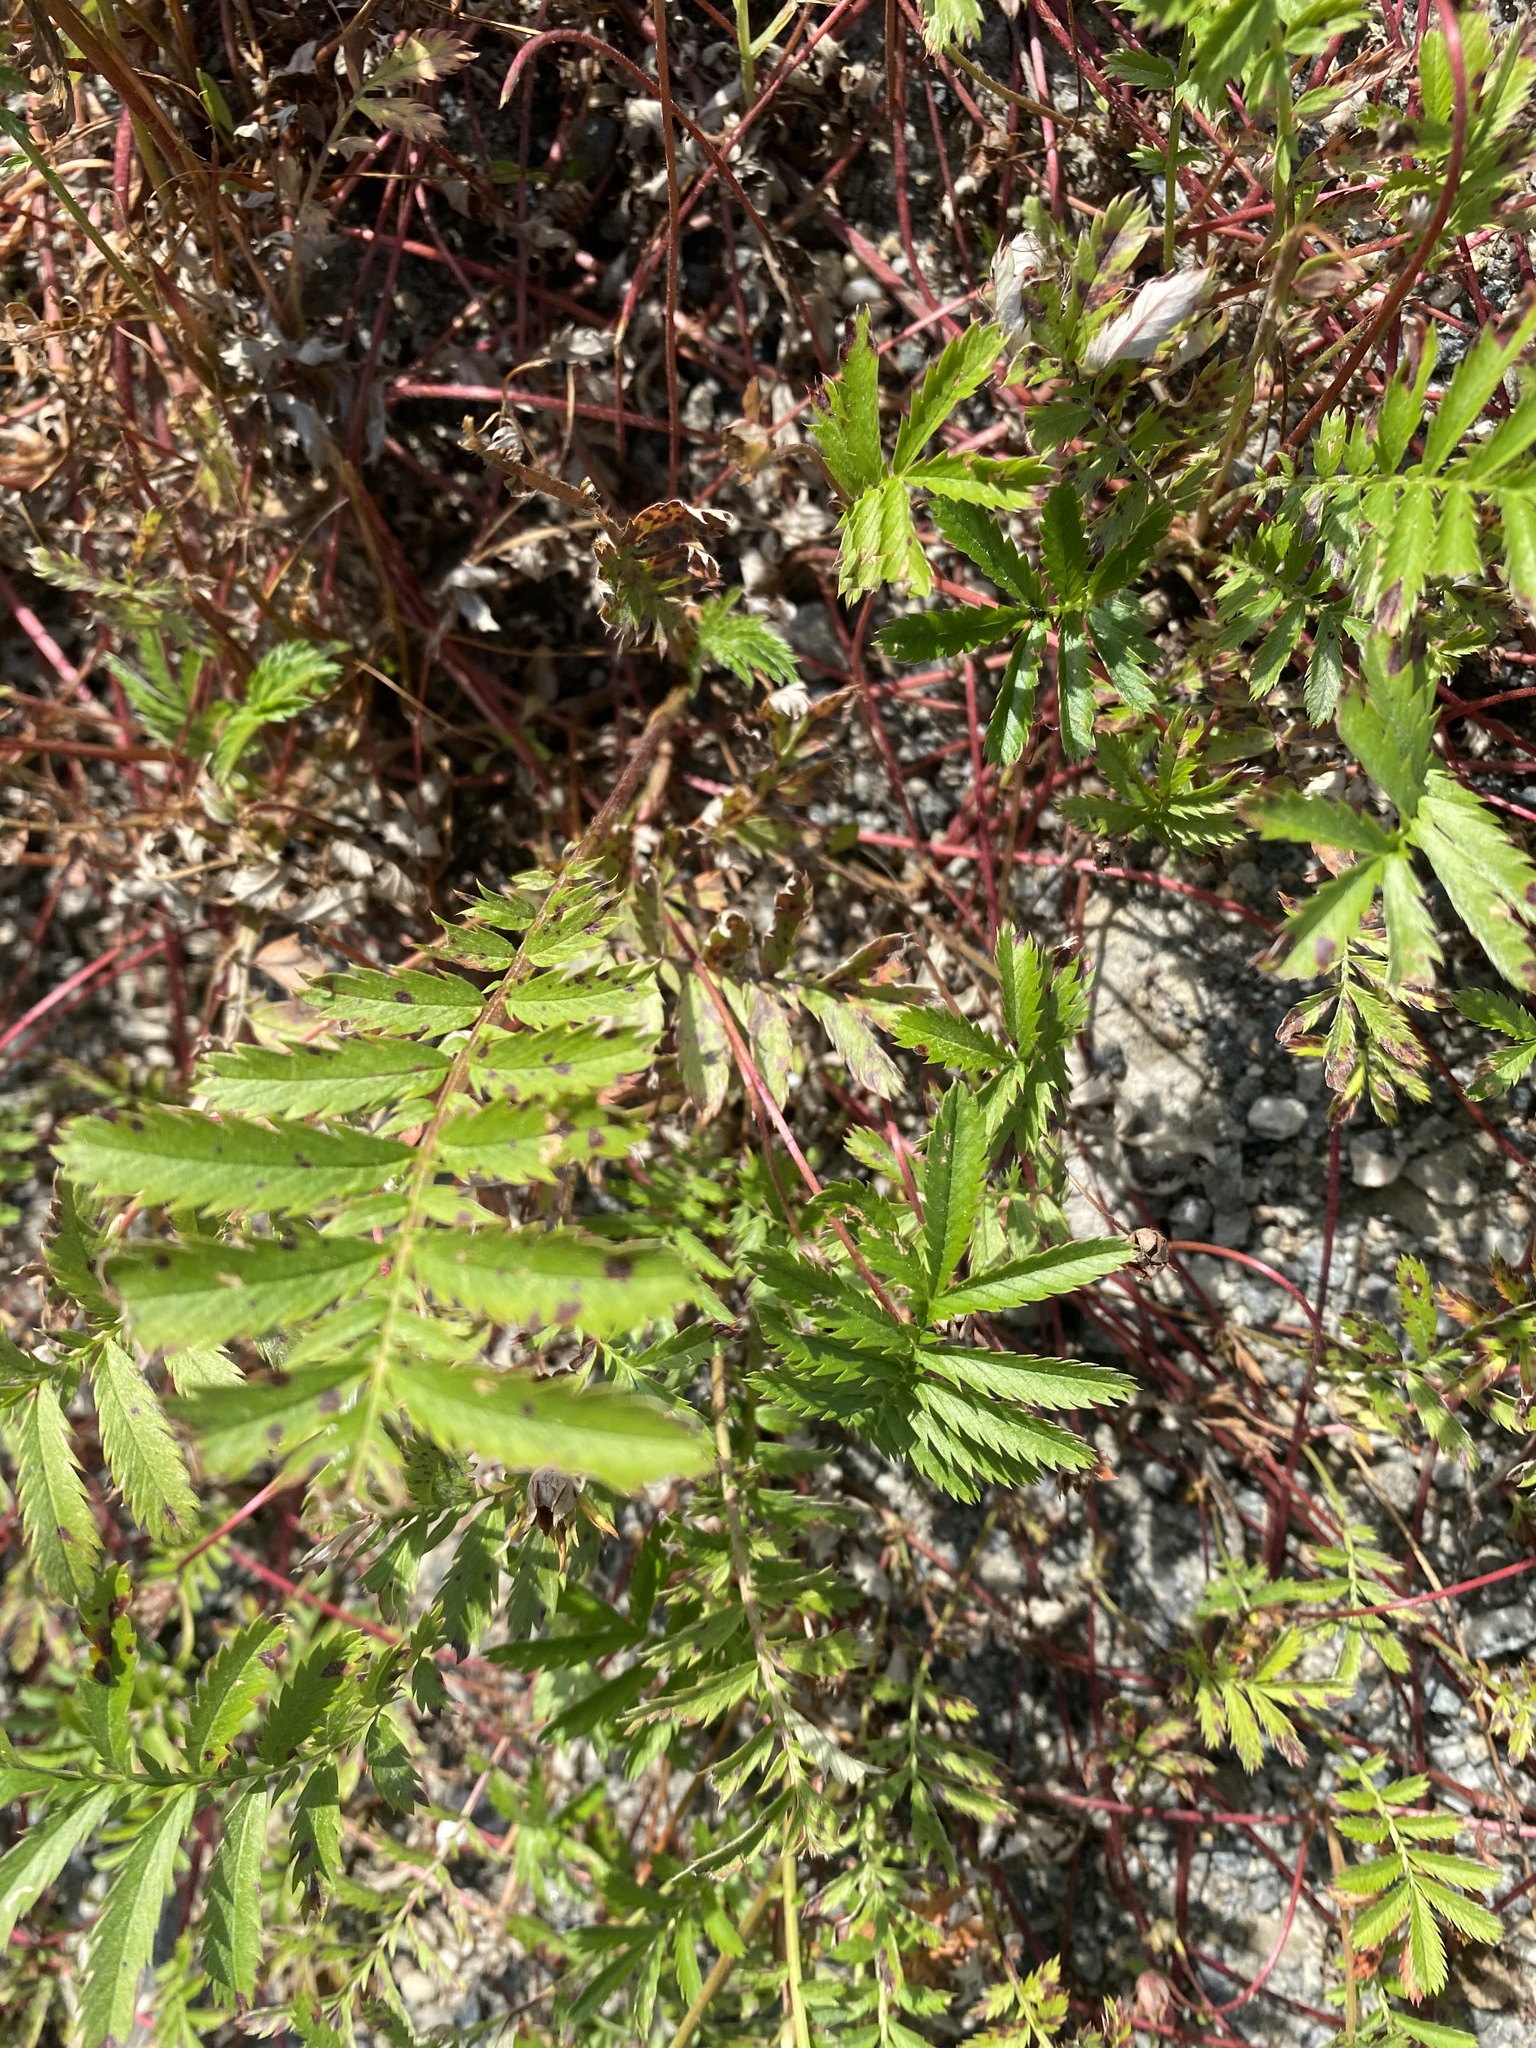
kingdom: Plantae
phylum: Tracheophyta
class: Magnoliopsida
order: Rosales
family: Rosaceae
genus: Argentina
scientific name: Argentina anserina
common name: Common silverweed
